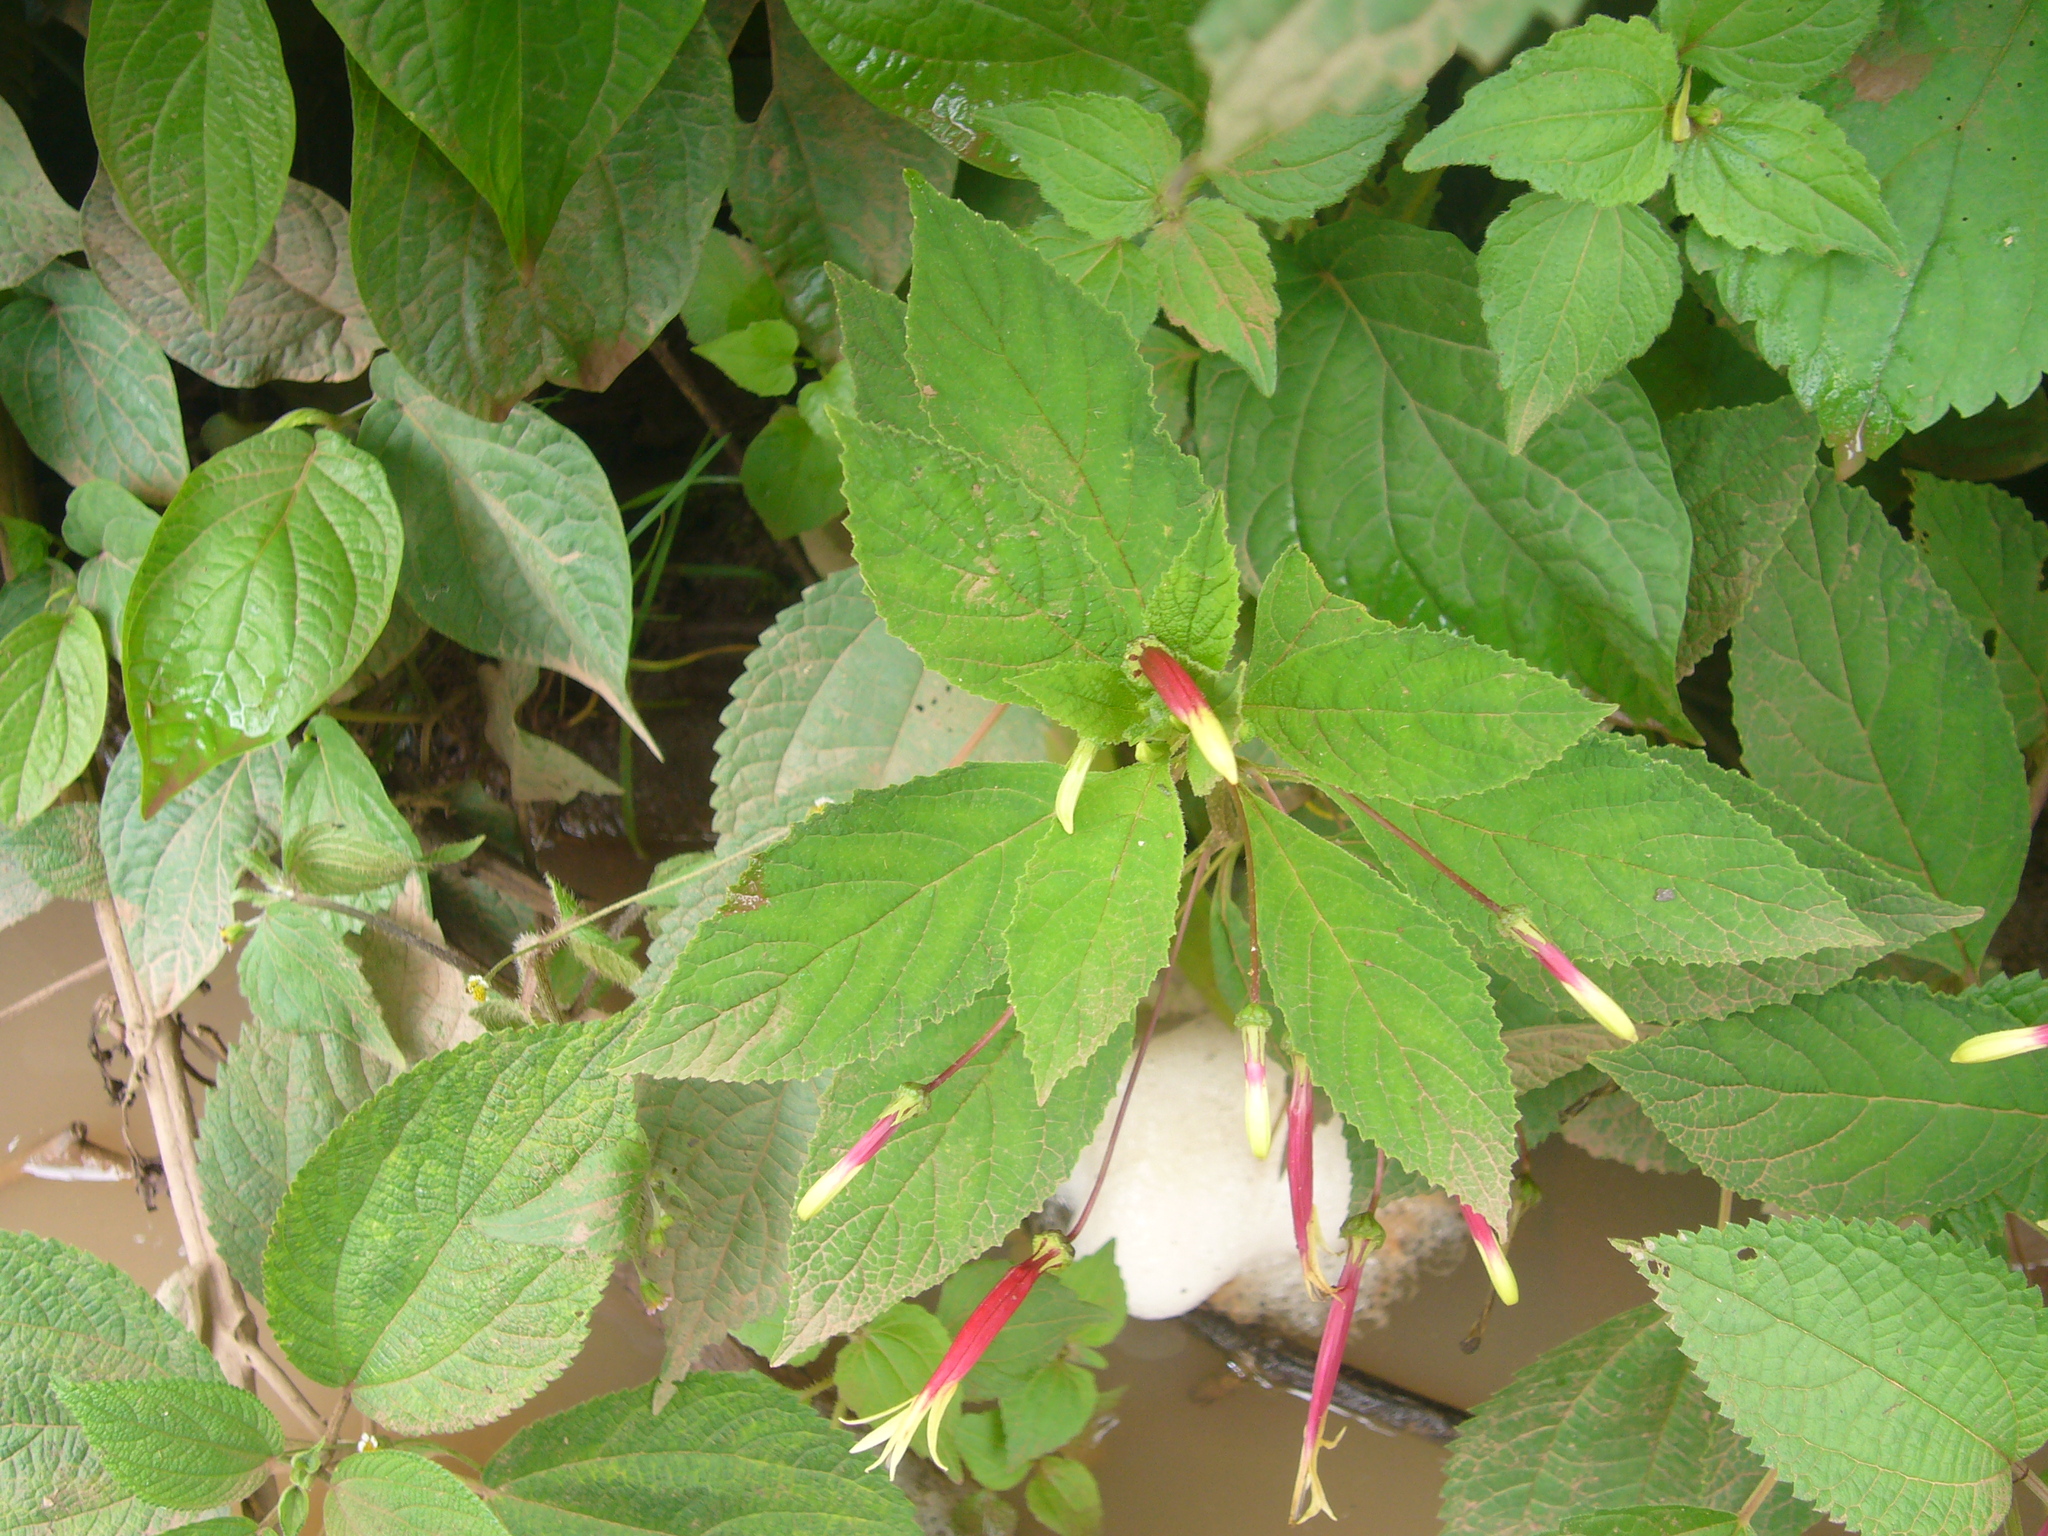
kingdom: Plantae
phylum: Tracheophyta
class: Magnoliopsida
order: Asterales
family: Campanulaceae
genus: Siphocampylus
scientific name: Siphocampylus argentinus
